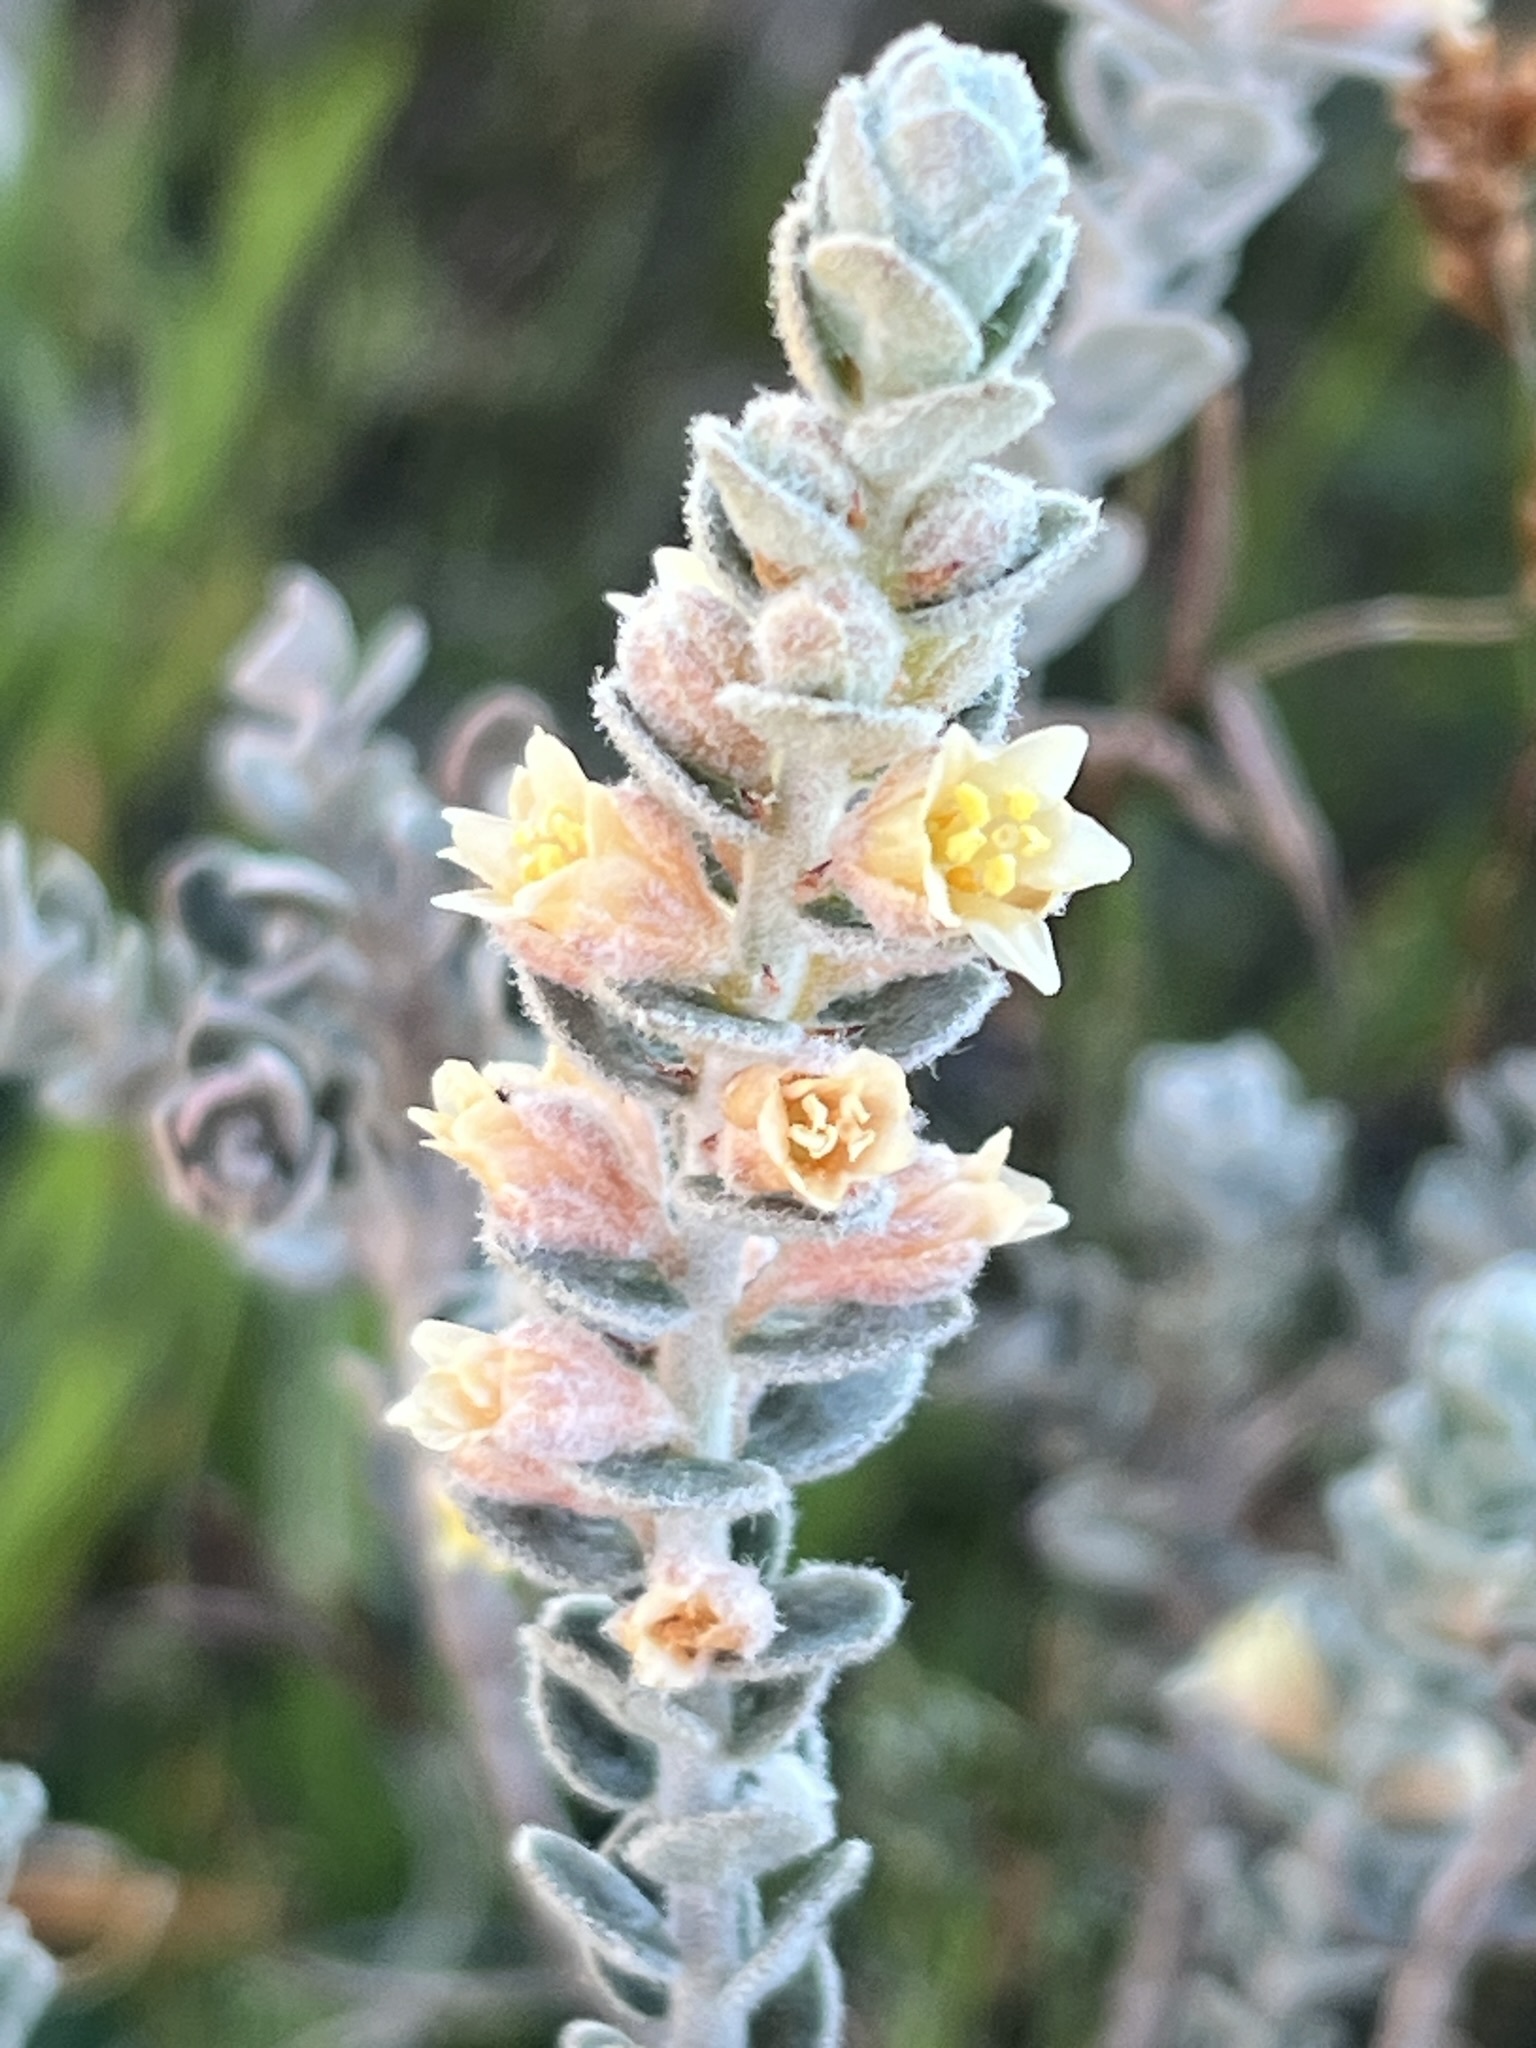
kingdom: Plantae
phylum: Tracheophyta
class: Magnoliopsida
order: Malpighiales
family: Peraceae
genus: Clutia
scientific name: Clutia tomentosa
